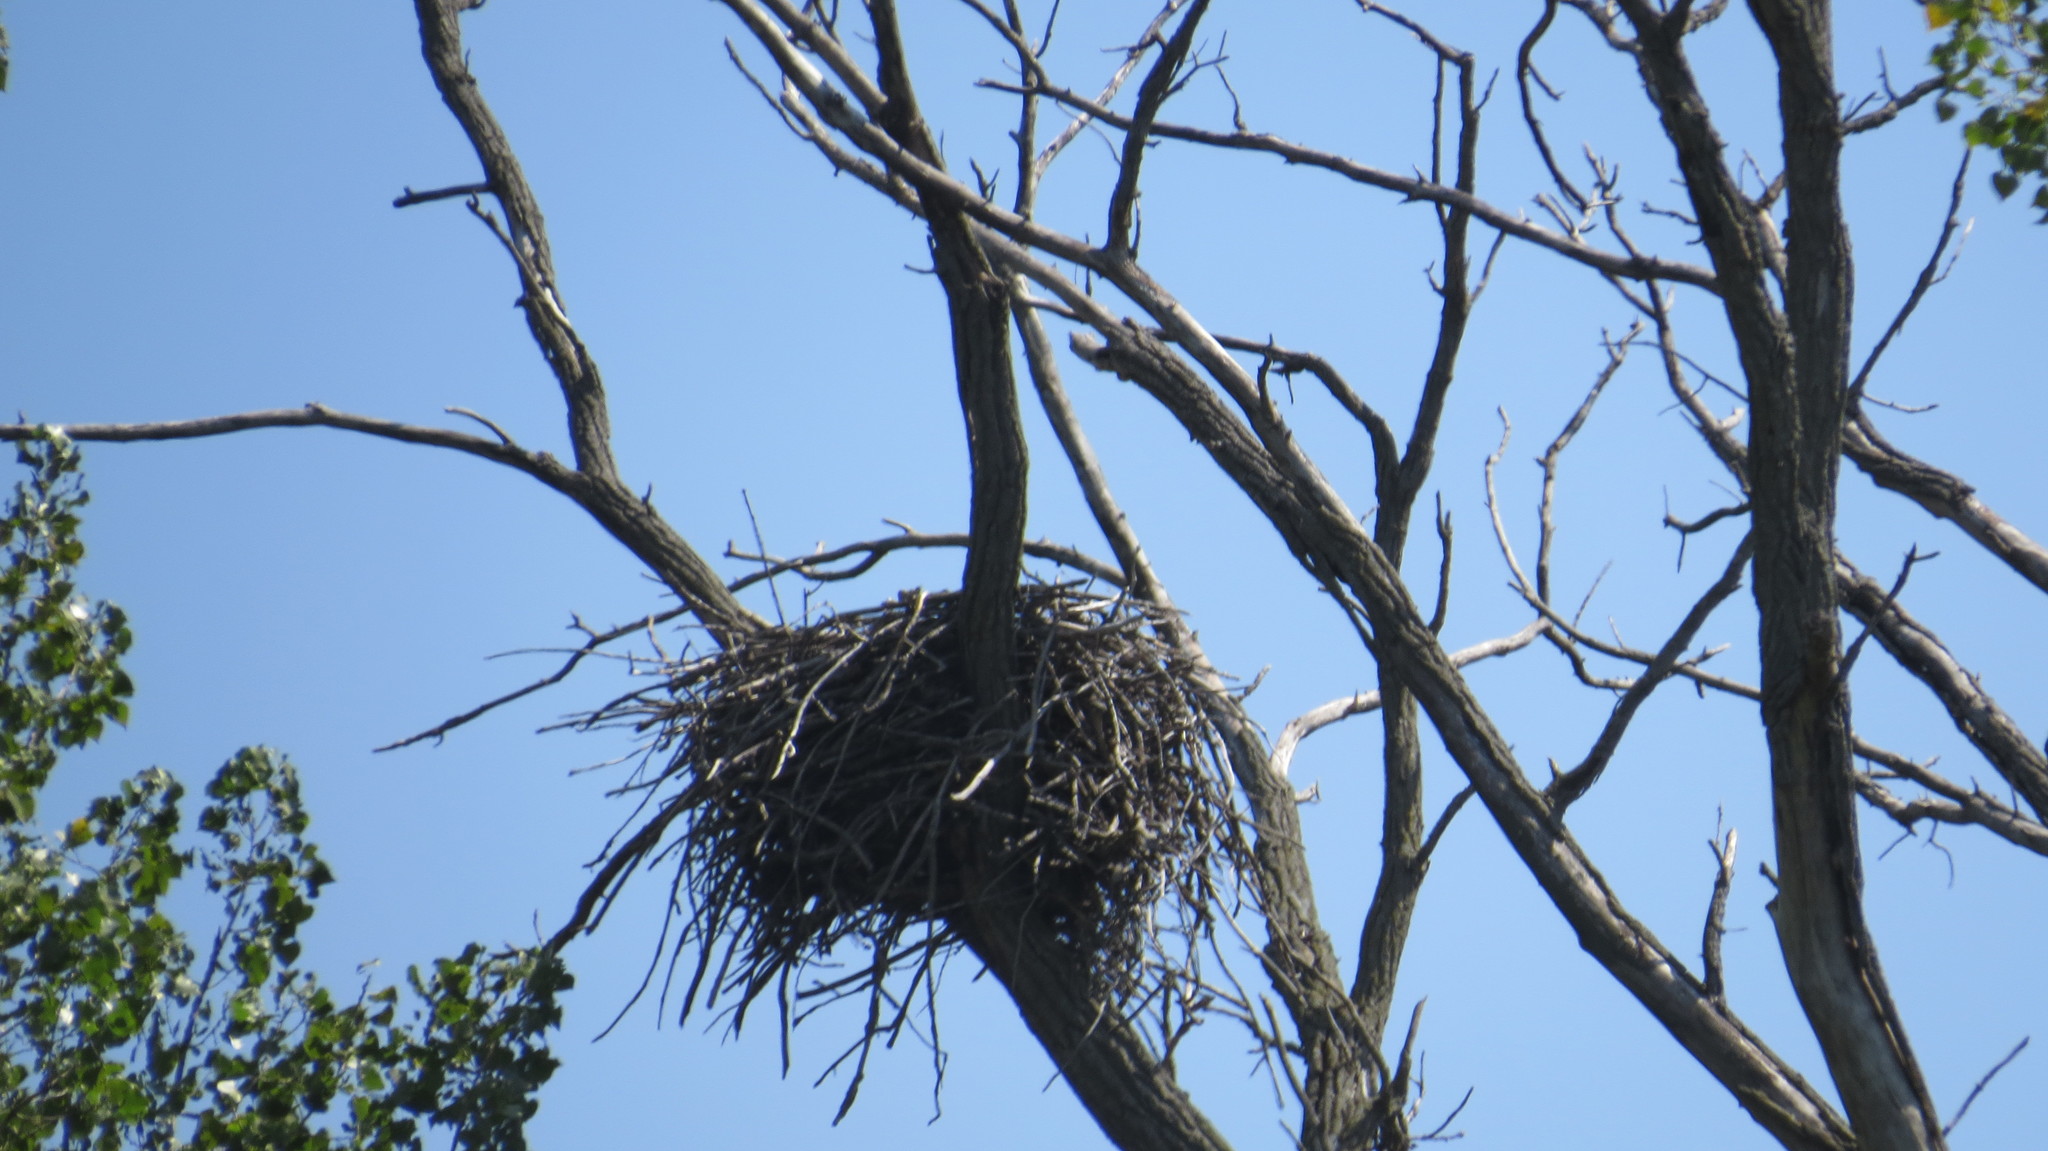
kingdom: Animalia
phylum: Chordata
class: Aves
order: Accipitriformes
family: Accipitridae
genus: Haliaeetus
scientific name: Haliaeetus leucocephalus
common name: Bald eagle
